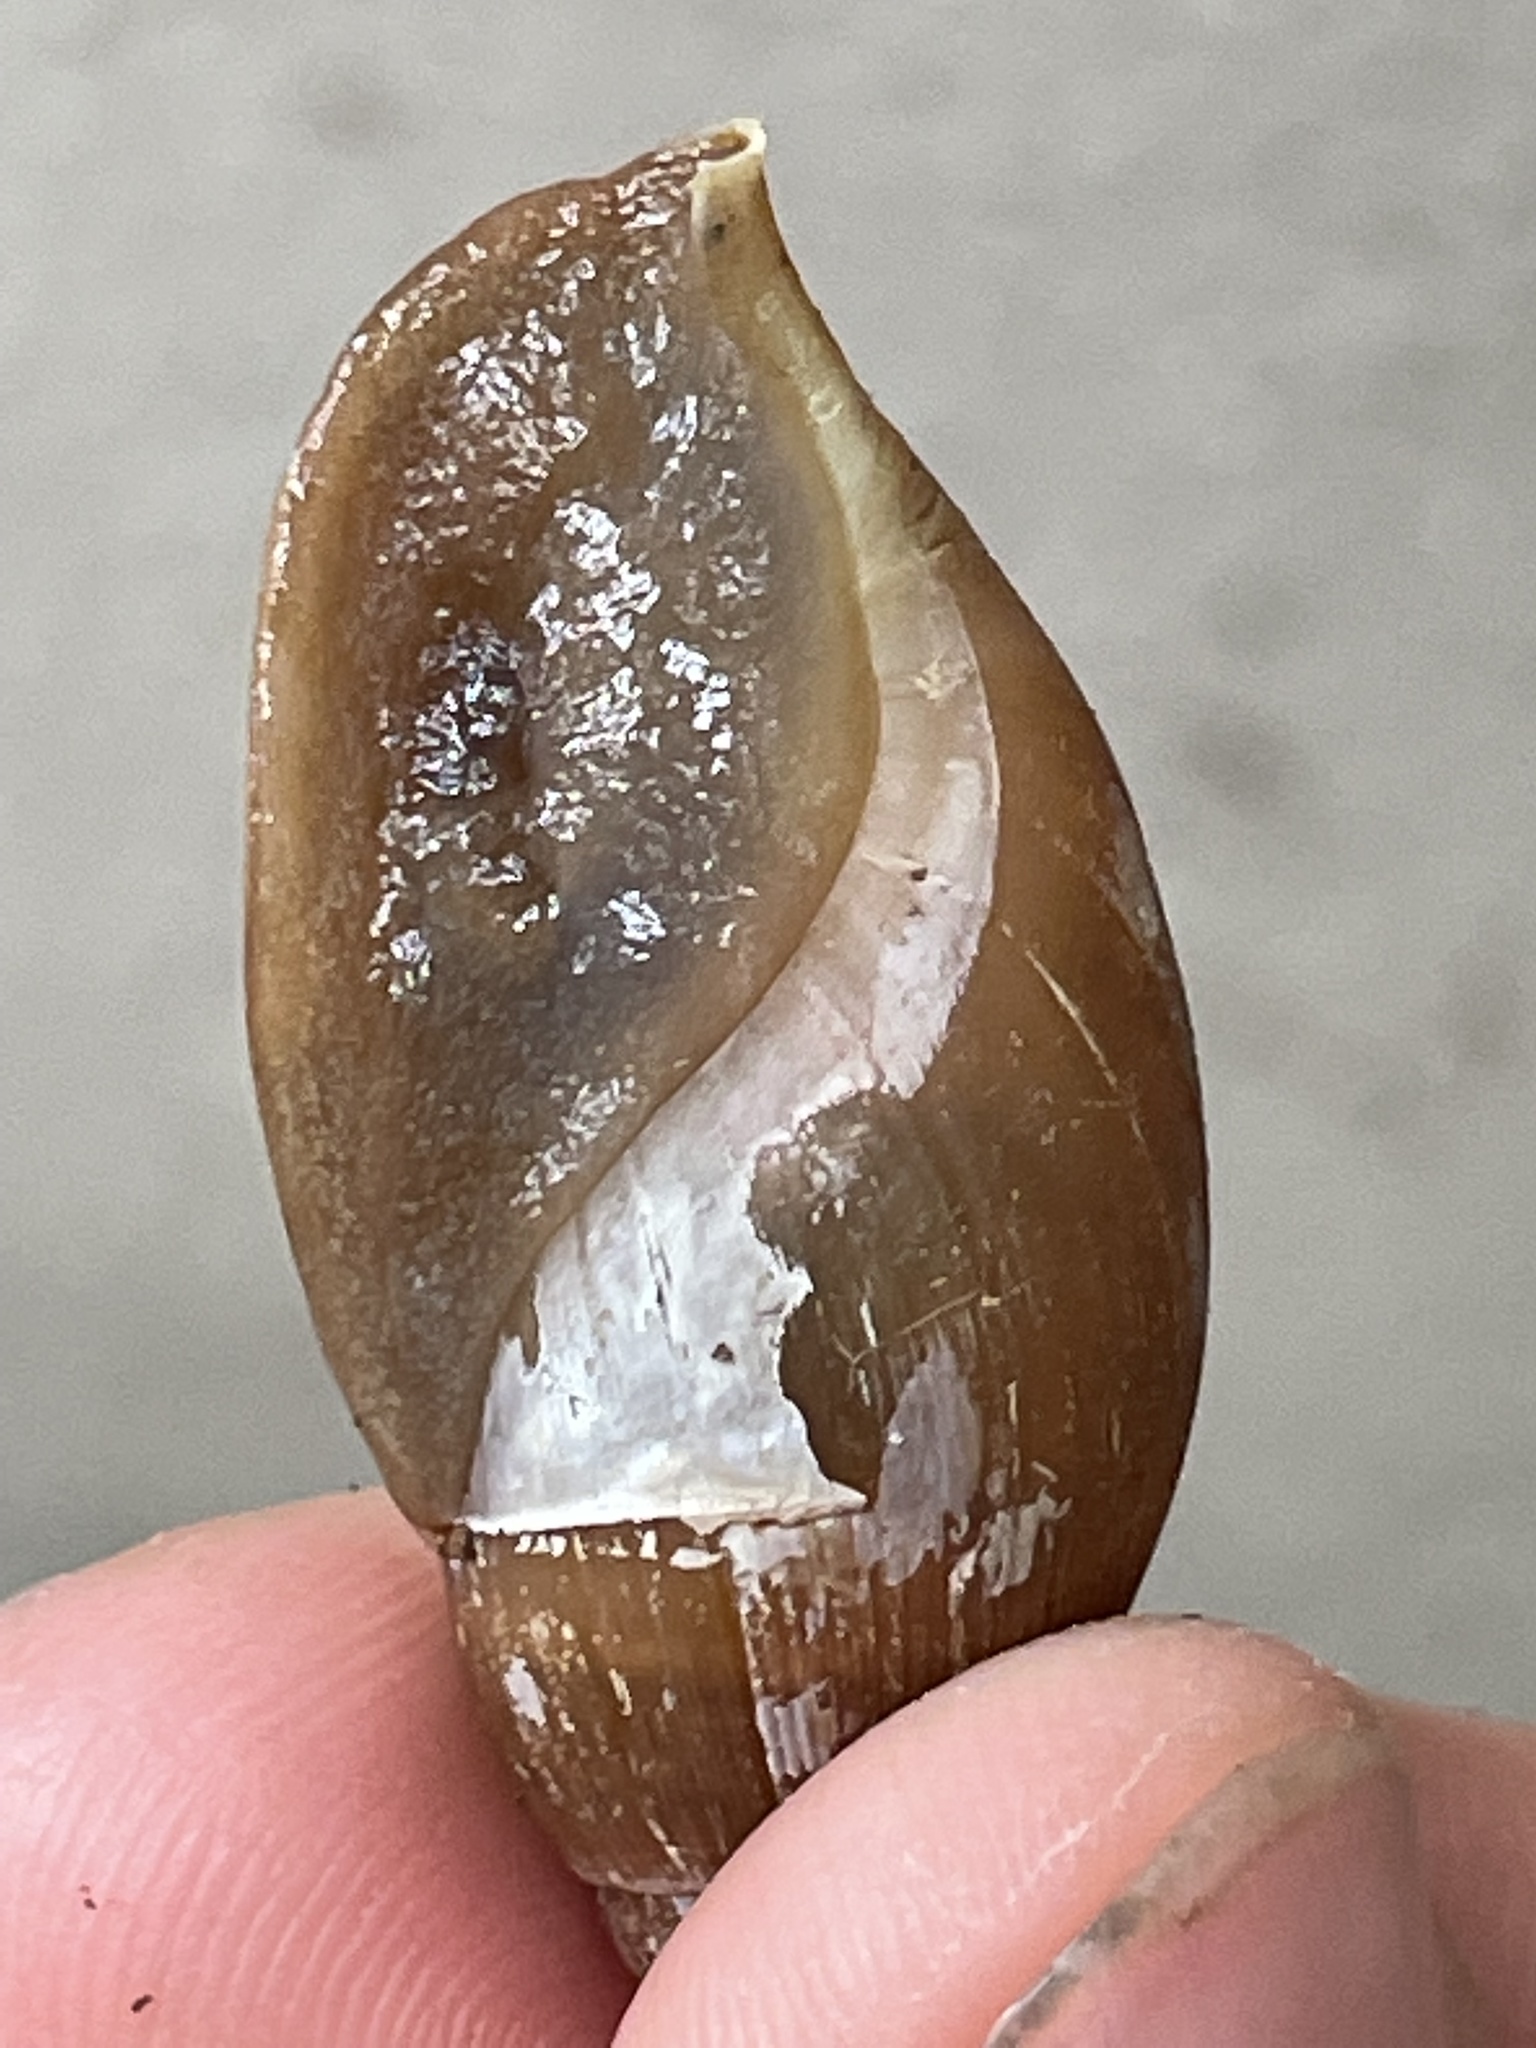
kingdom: Animalia
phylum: Mollusca
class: Gastropoda
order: Stylommatophora
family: Spiraxidae
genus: Euglandina
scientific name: Euglandina rosea
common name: Rosy wolfsnail
